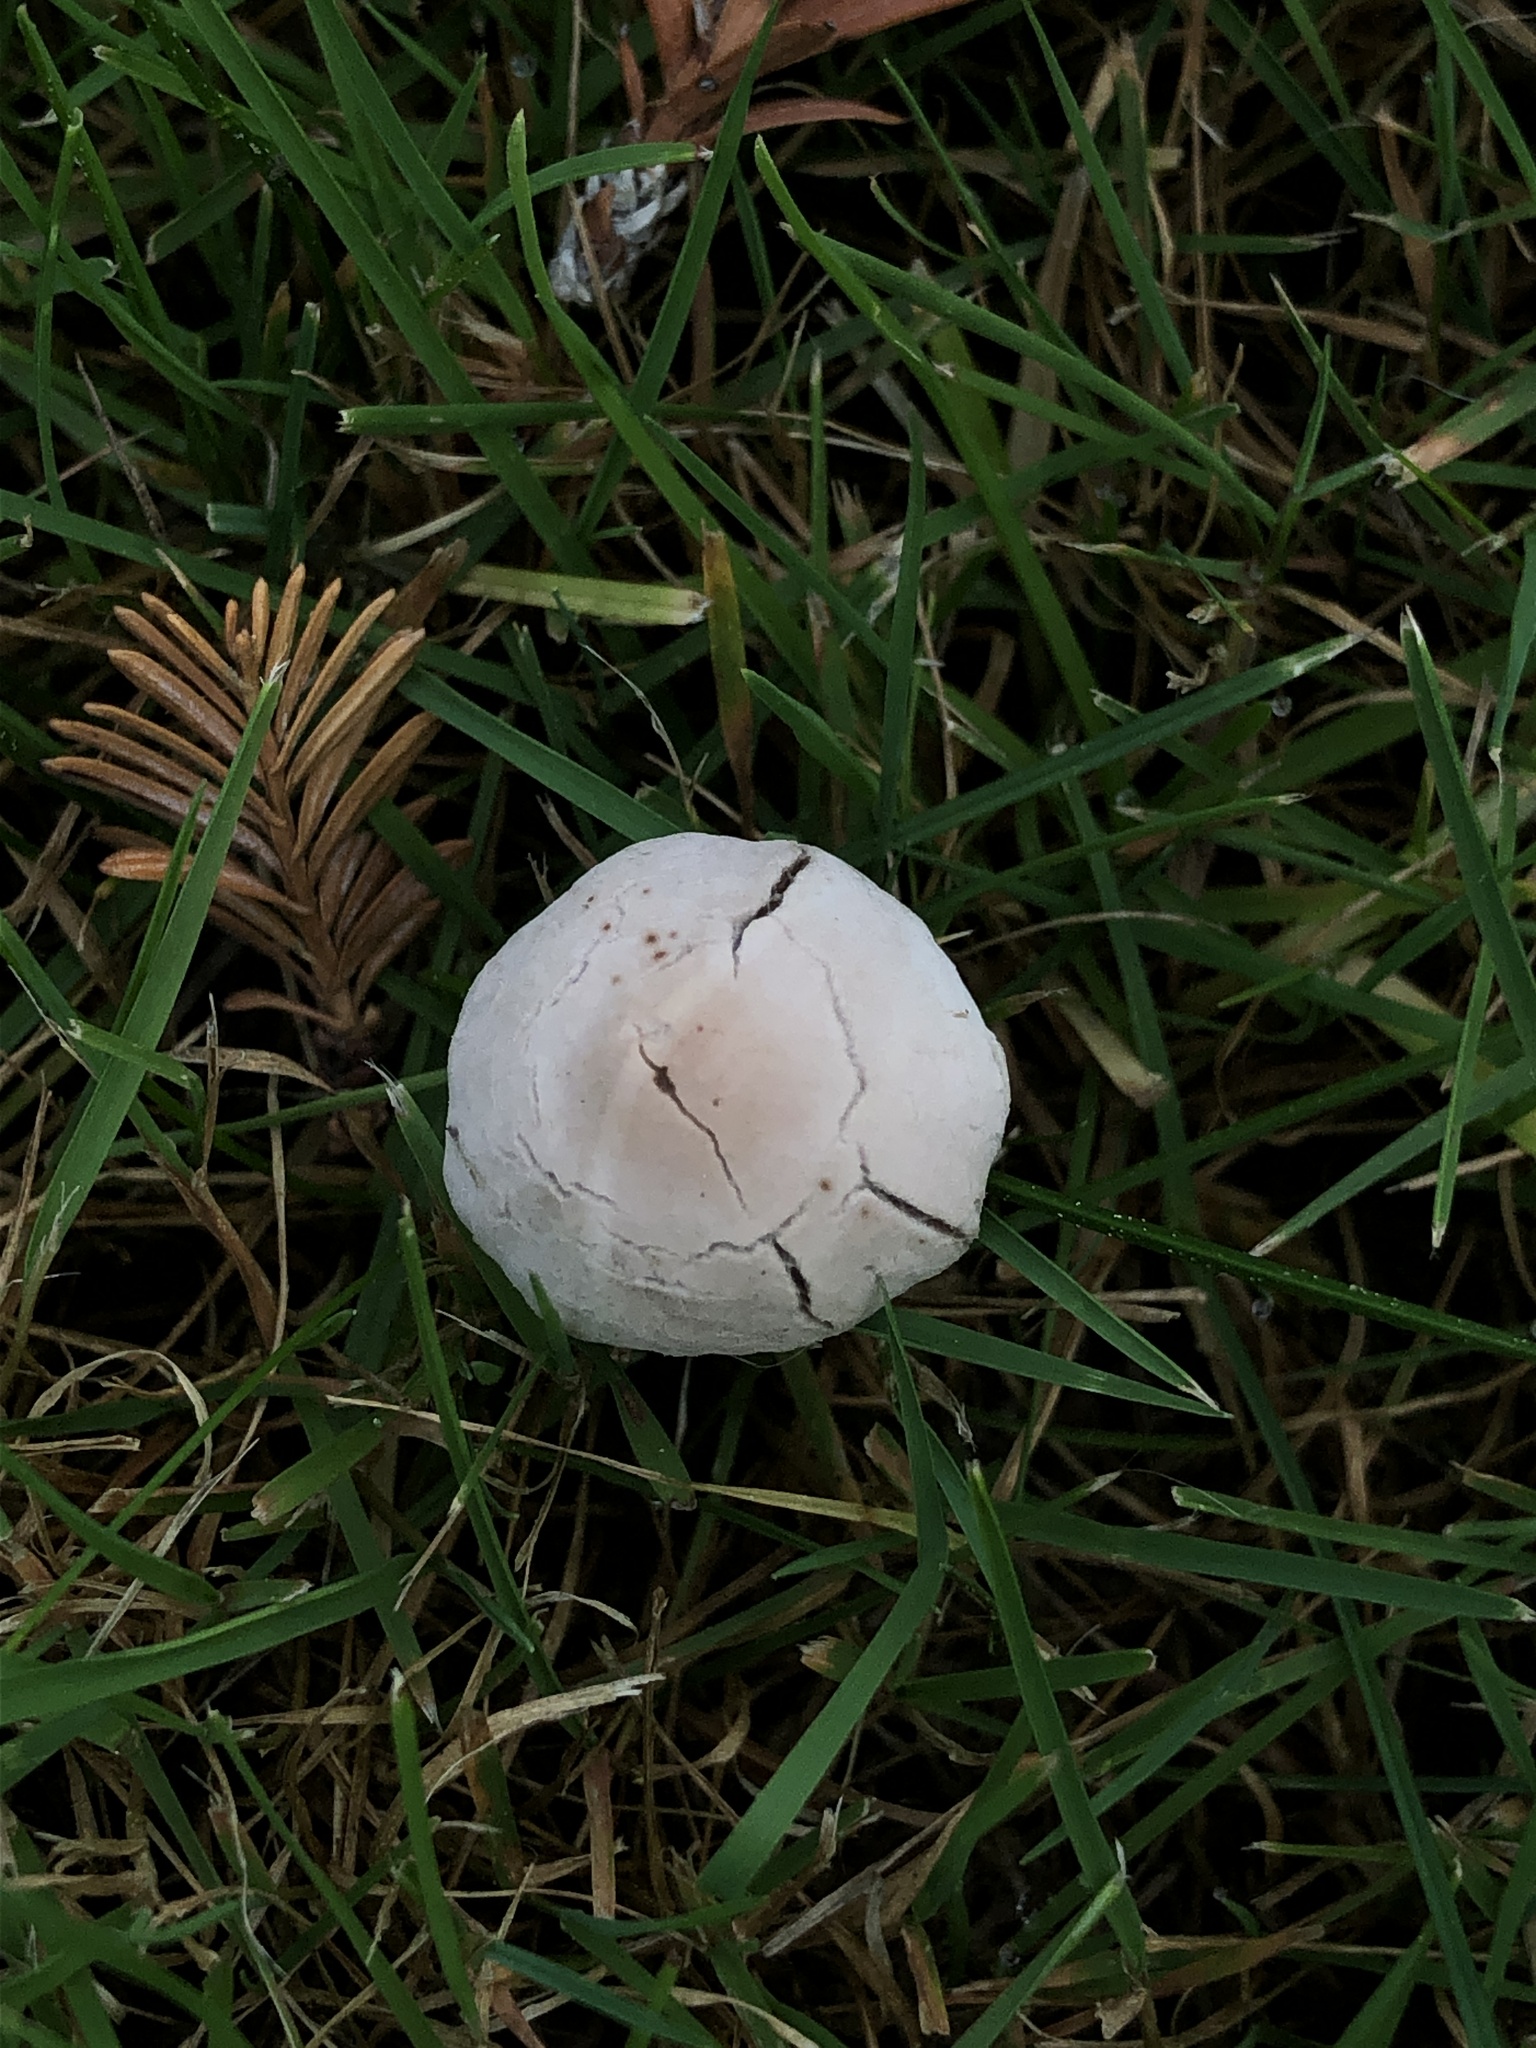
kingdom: Fungi
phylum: Basidiomycota
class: Agaricomycetes
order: Agaricales
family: Bolbitiaceae
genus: Panaeolina
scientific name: Panaeolina foenisecii
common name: Brown hay cap
